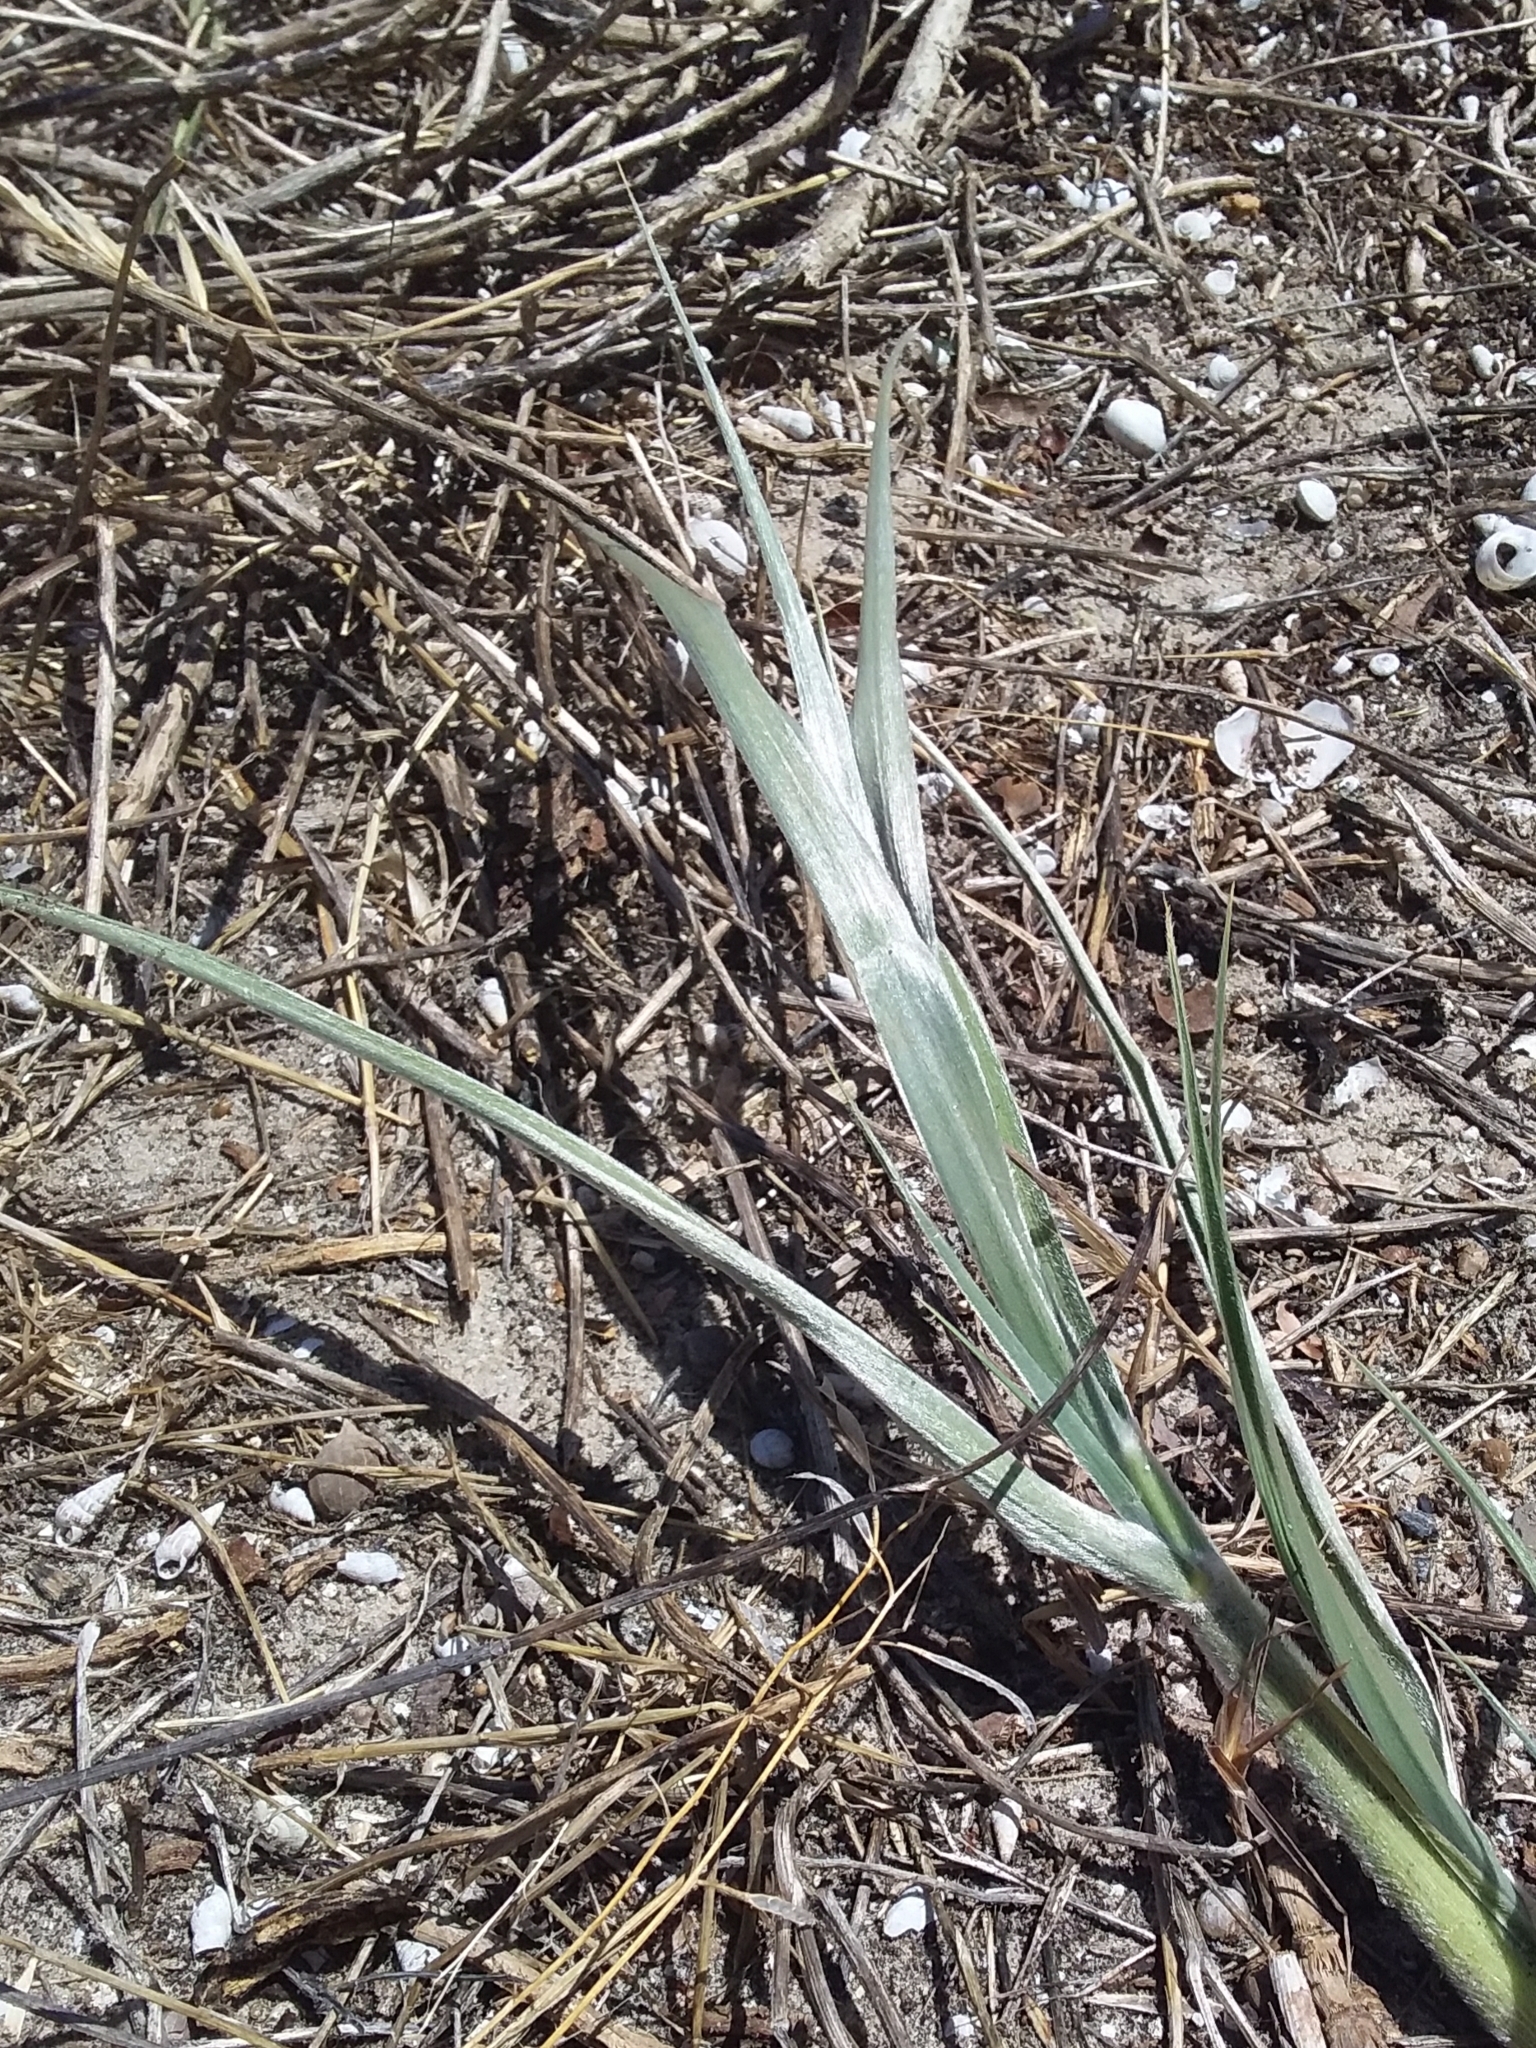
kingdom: Plantae
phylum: Tracheophyta
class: Liliopsida
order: Poales
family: Poaceae
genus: Spinifex
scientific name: Spinifex sericeus
